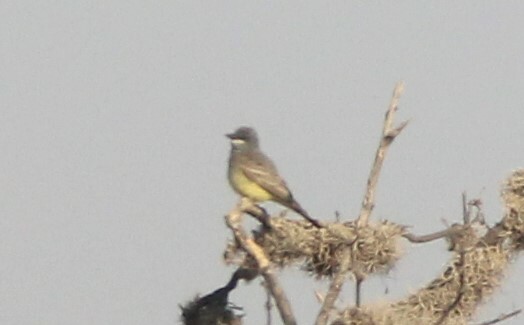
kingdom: Animalia
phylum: Chordata
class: Aves
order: Passeriformes
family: Tyrannidae
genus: Tyrannus
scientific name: Tyrannus vociferans
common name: Cassin's kingbird
